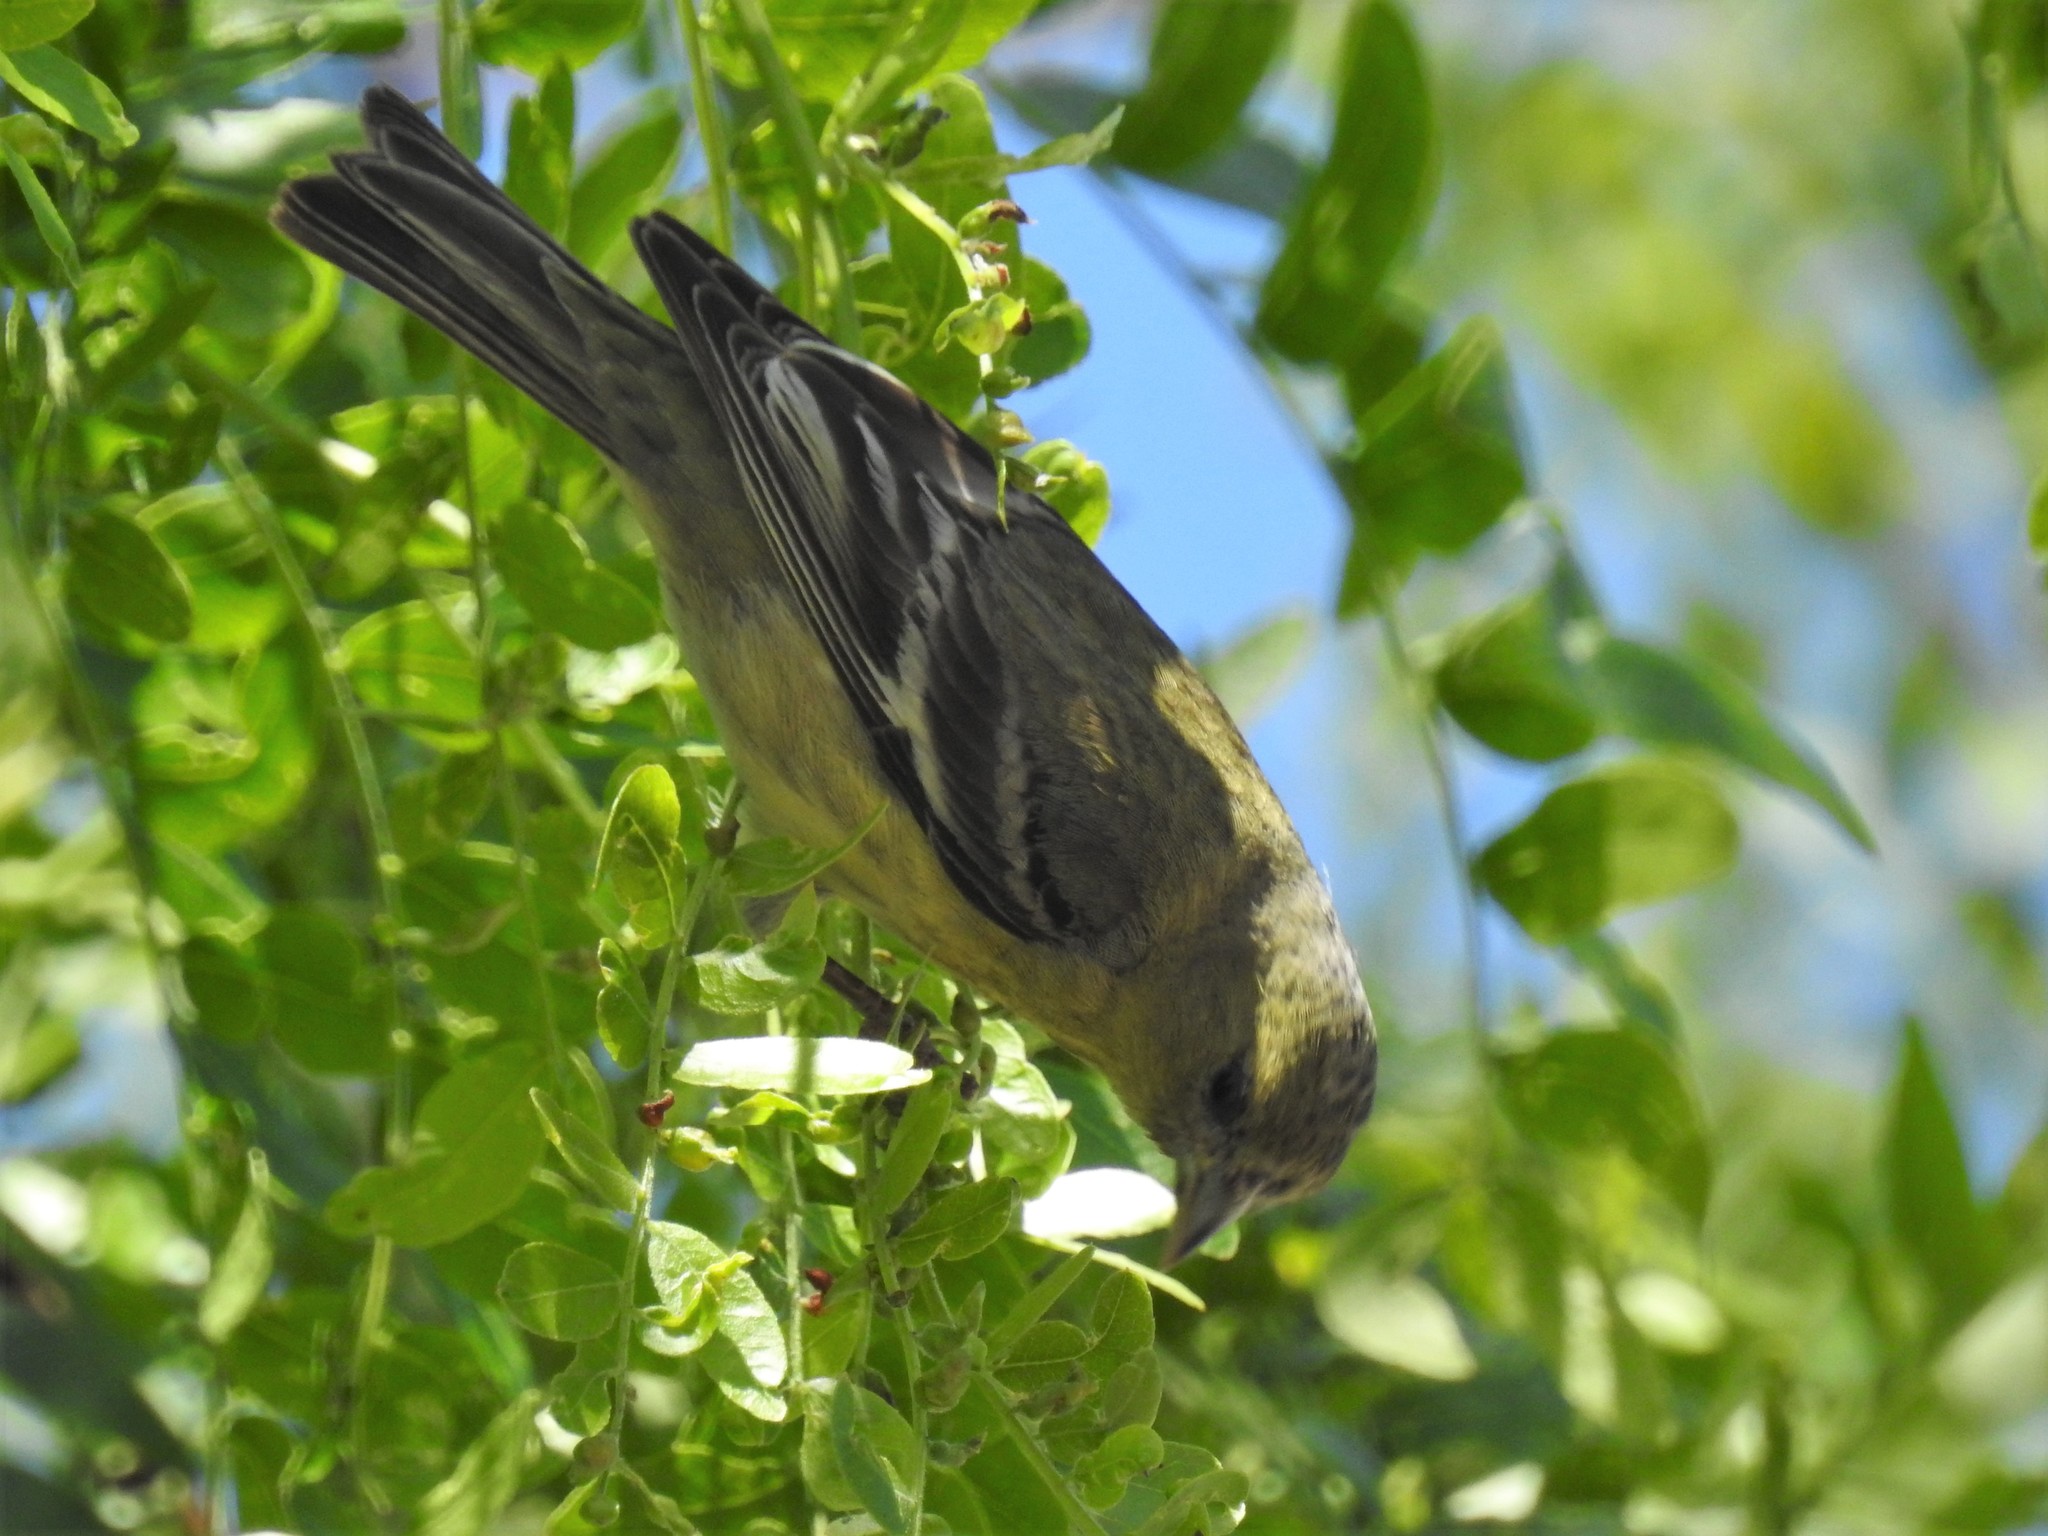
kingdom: Animalia
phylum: Chordata
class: Aves
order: Passeriformes
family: Fringillidae
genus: Spinus
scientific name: Spinus psaltria
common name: Lesser goldfinch
